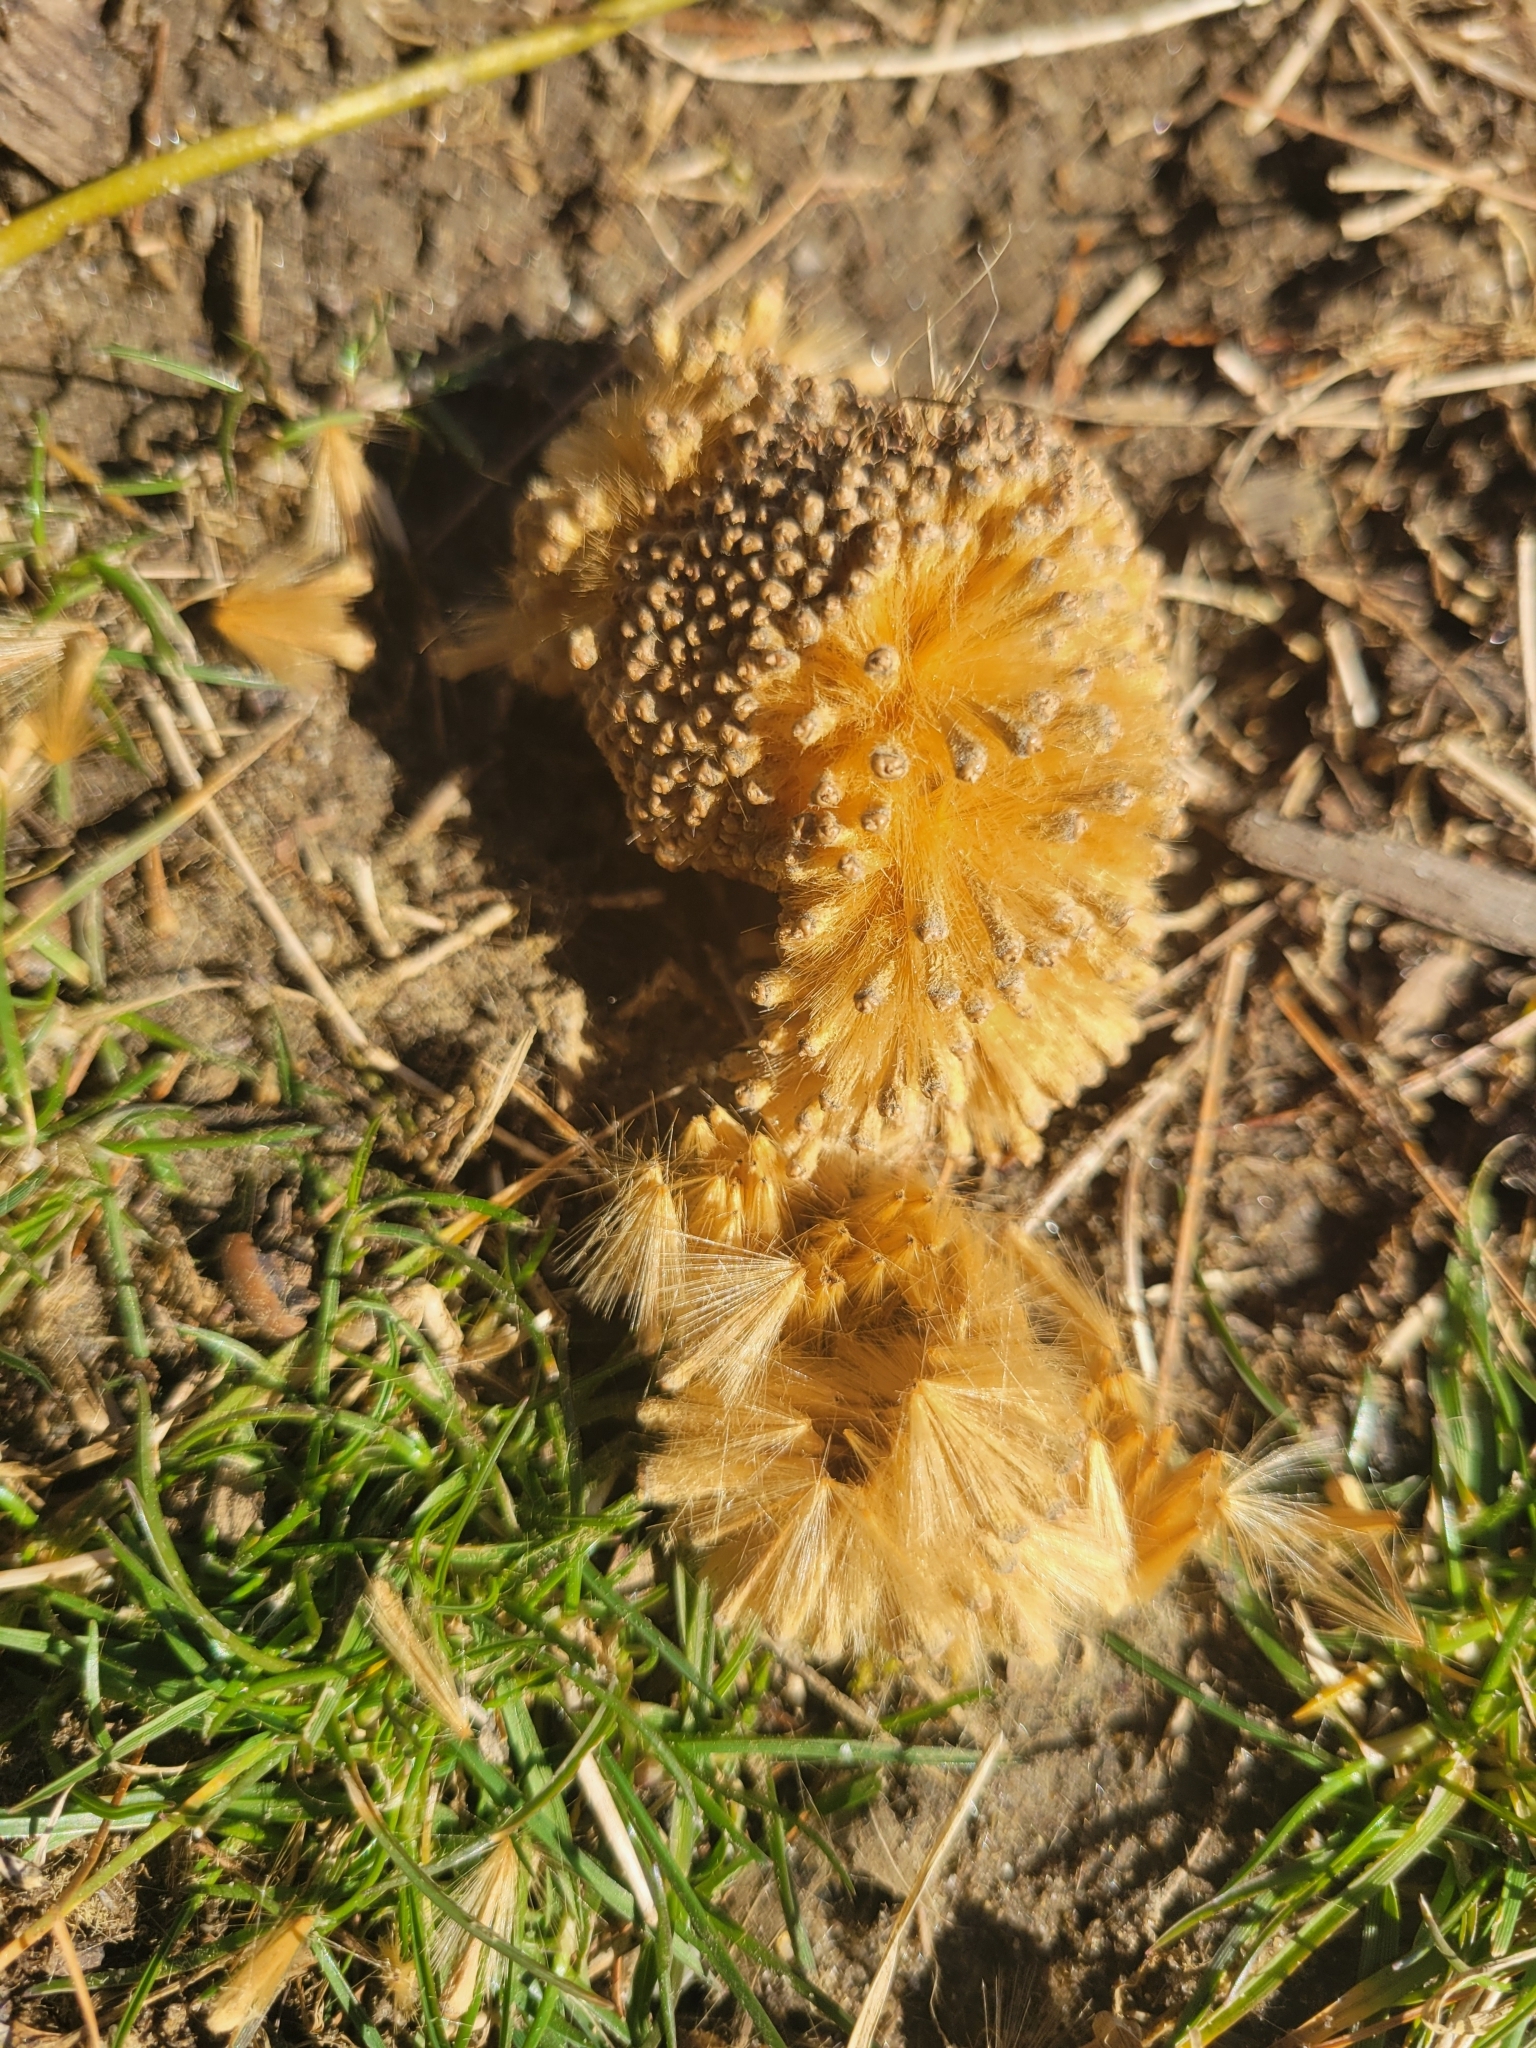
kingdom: Plantae
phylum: Tracheophyta
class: Magnoliopsida
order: Proteales
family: Platanaceae
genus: Platanus
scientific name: Platanus occidentalis
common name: American sycamore
